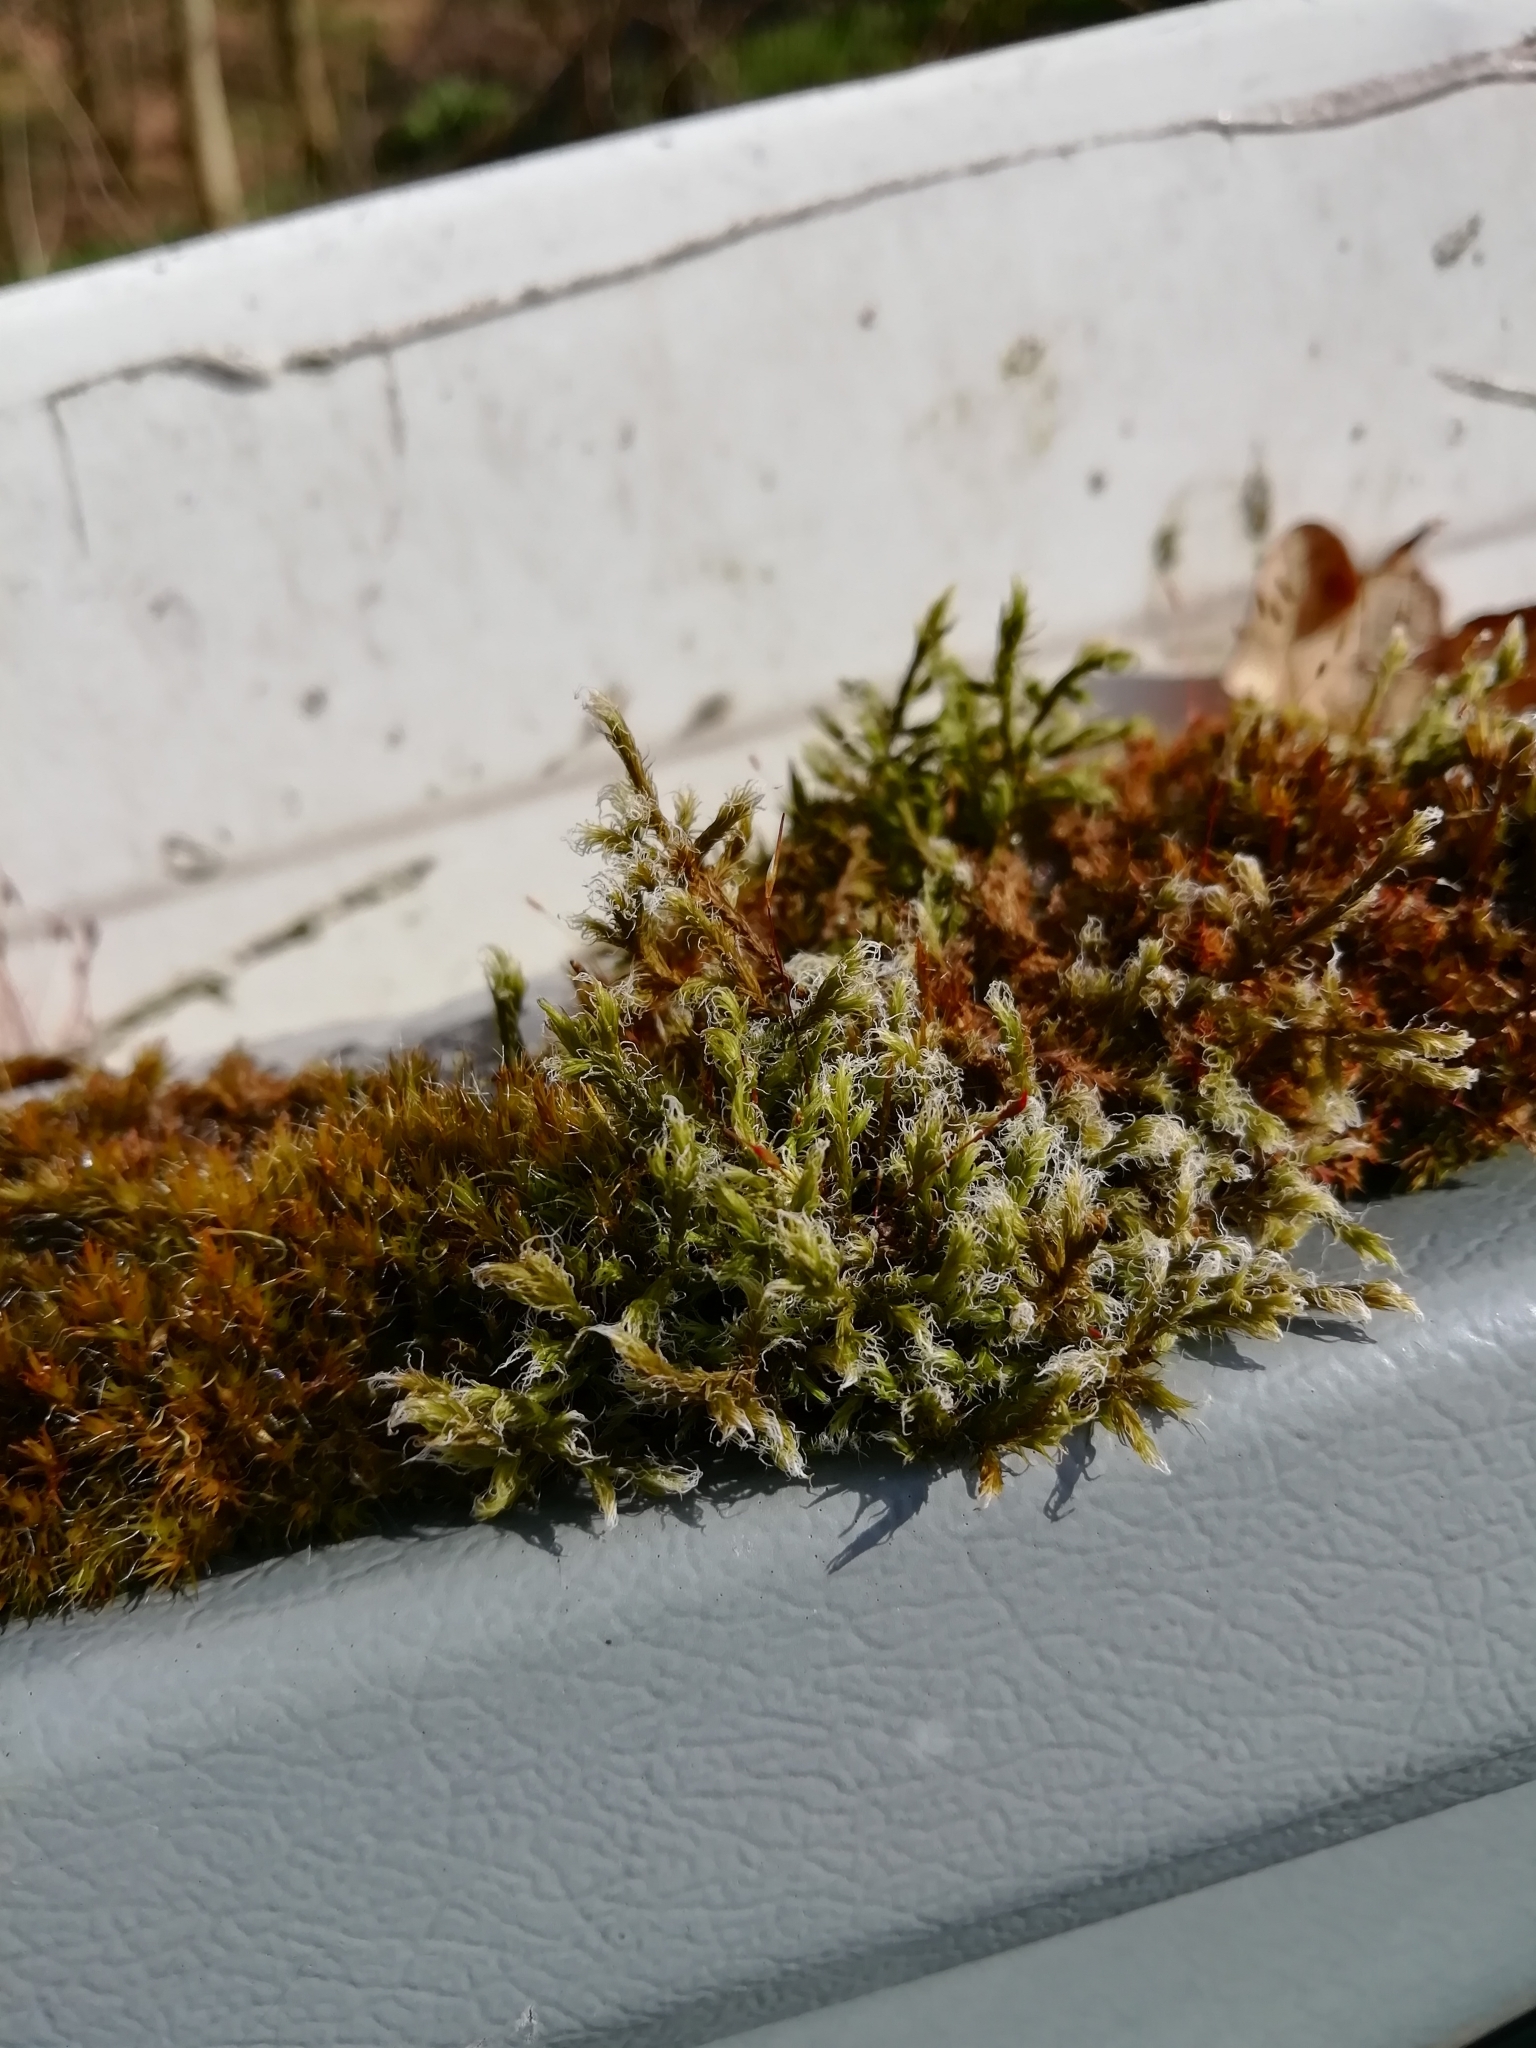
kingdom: Plantae
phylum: Bryophyta
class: Bryopsida
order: Grimmiales
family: Grimmiaceae
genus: Racomitrium
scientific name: Racomitrium lanuginosum
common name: Hoary rock moss
